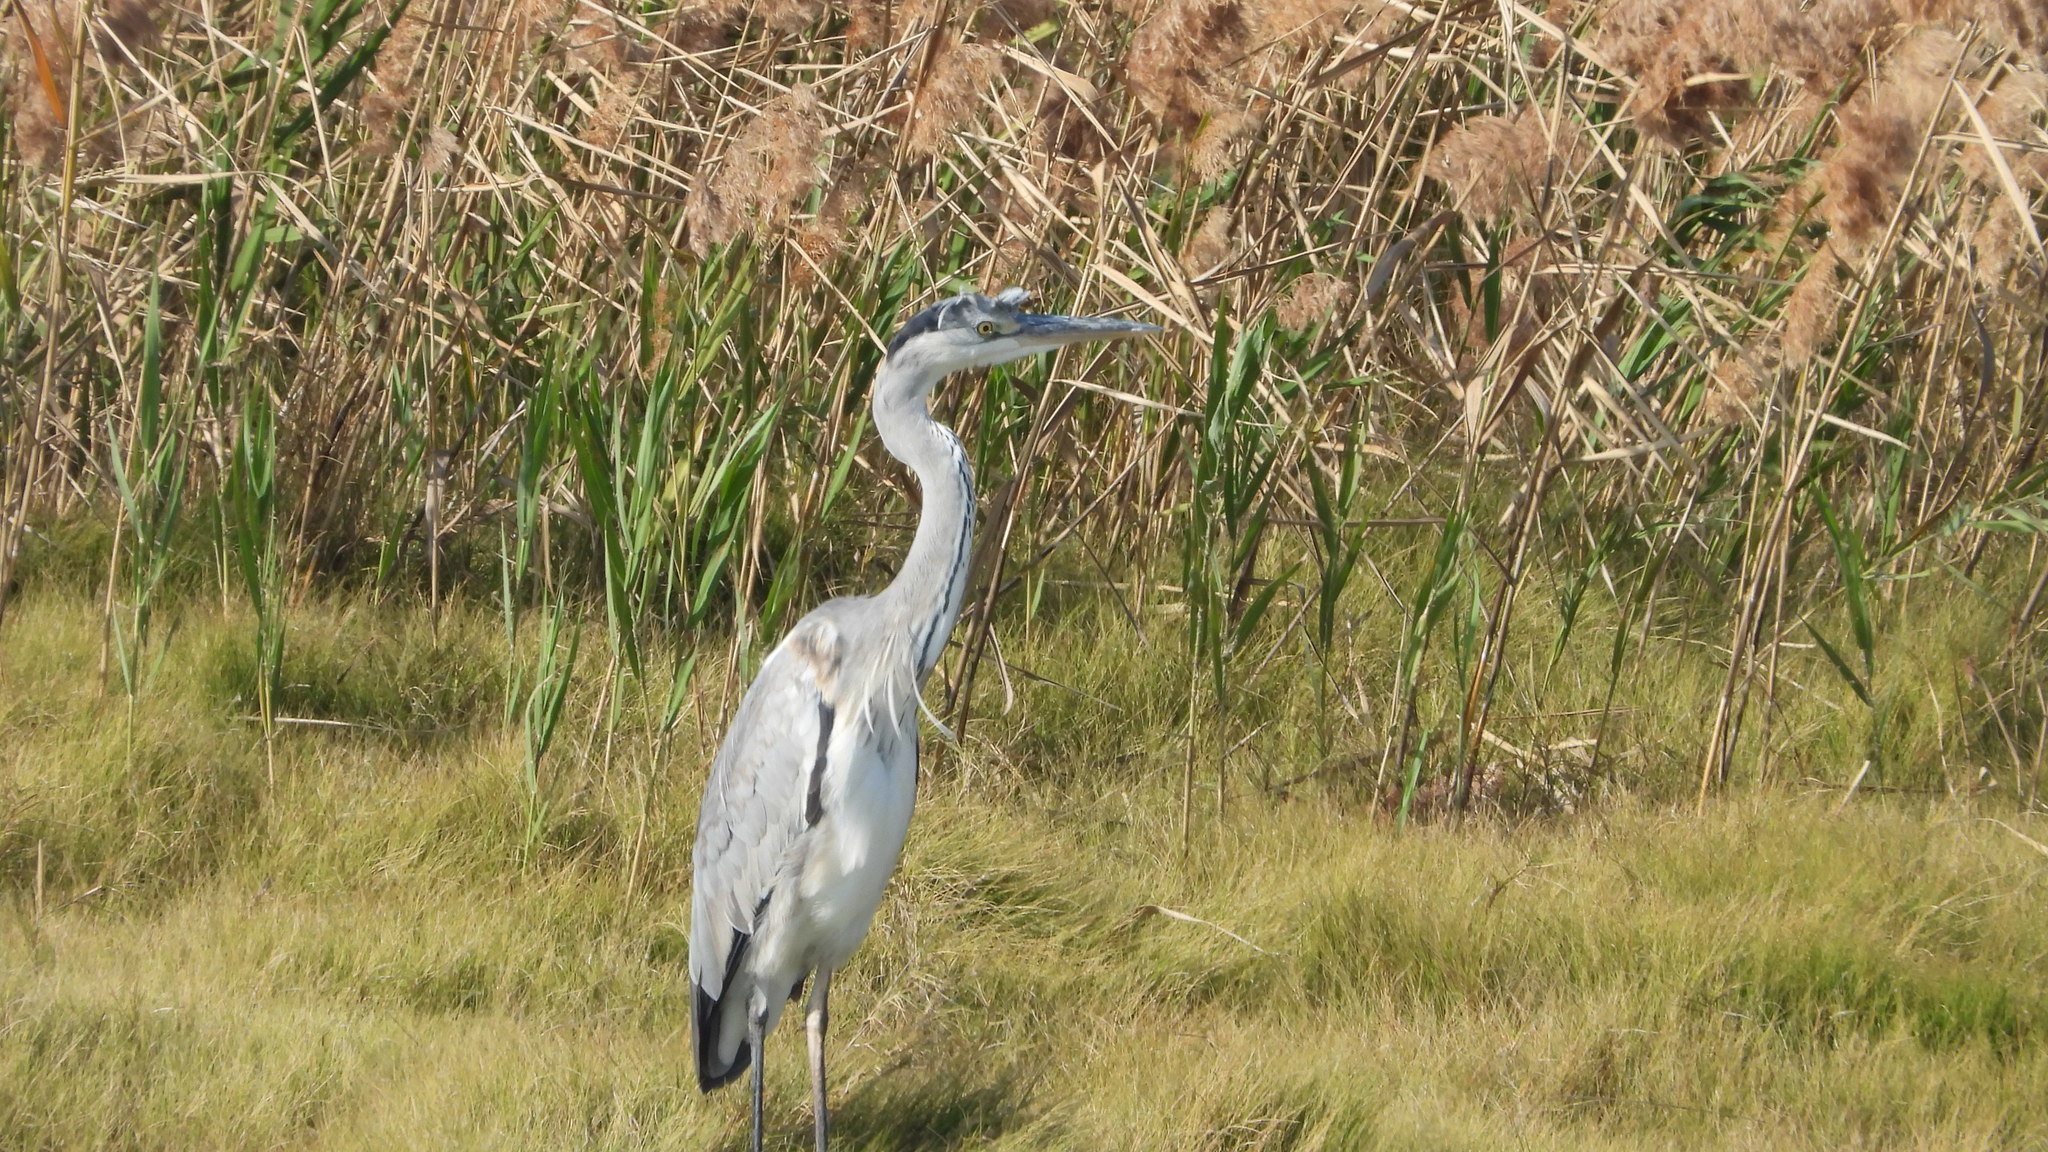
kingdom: Animalia
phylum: Chordata
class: Aves
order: Pelecaniformes
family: Ardeidae
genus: Ardea
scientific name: Ardea cinerea
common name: Grey heron
